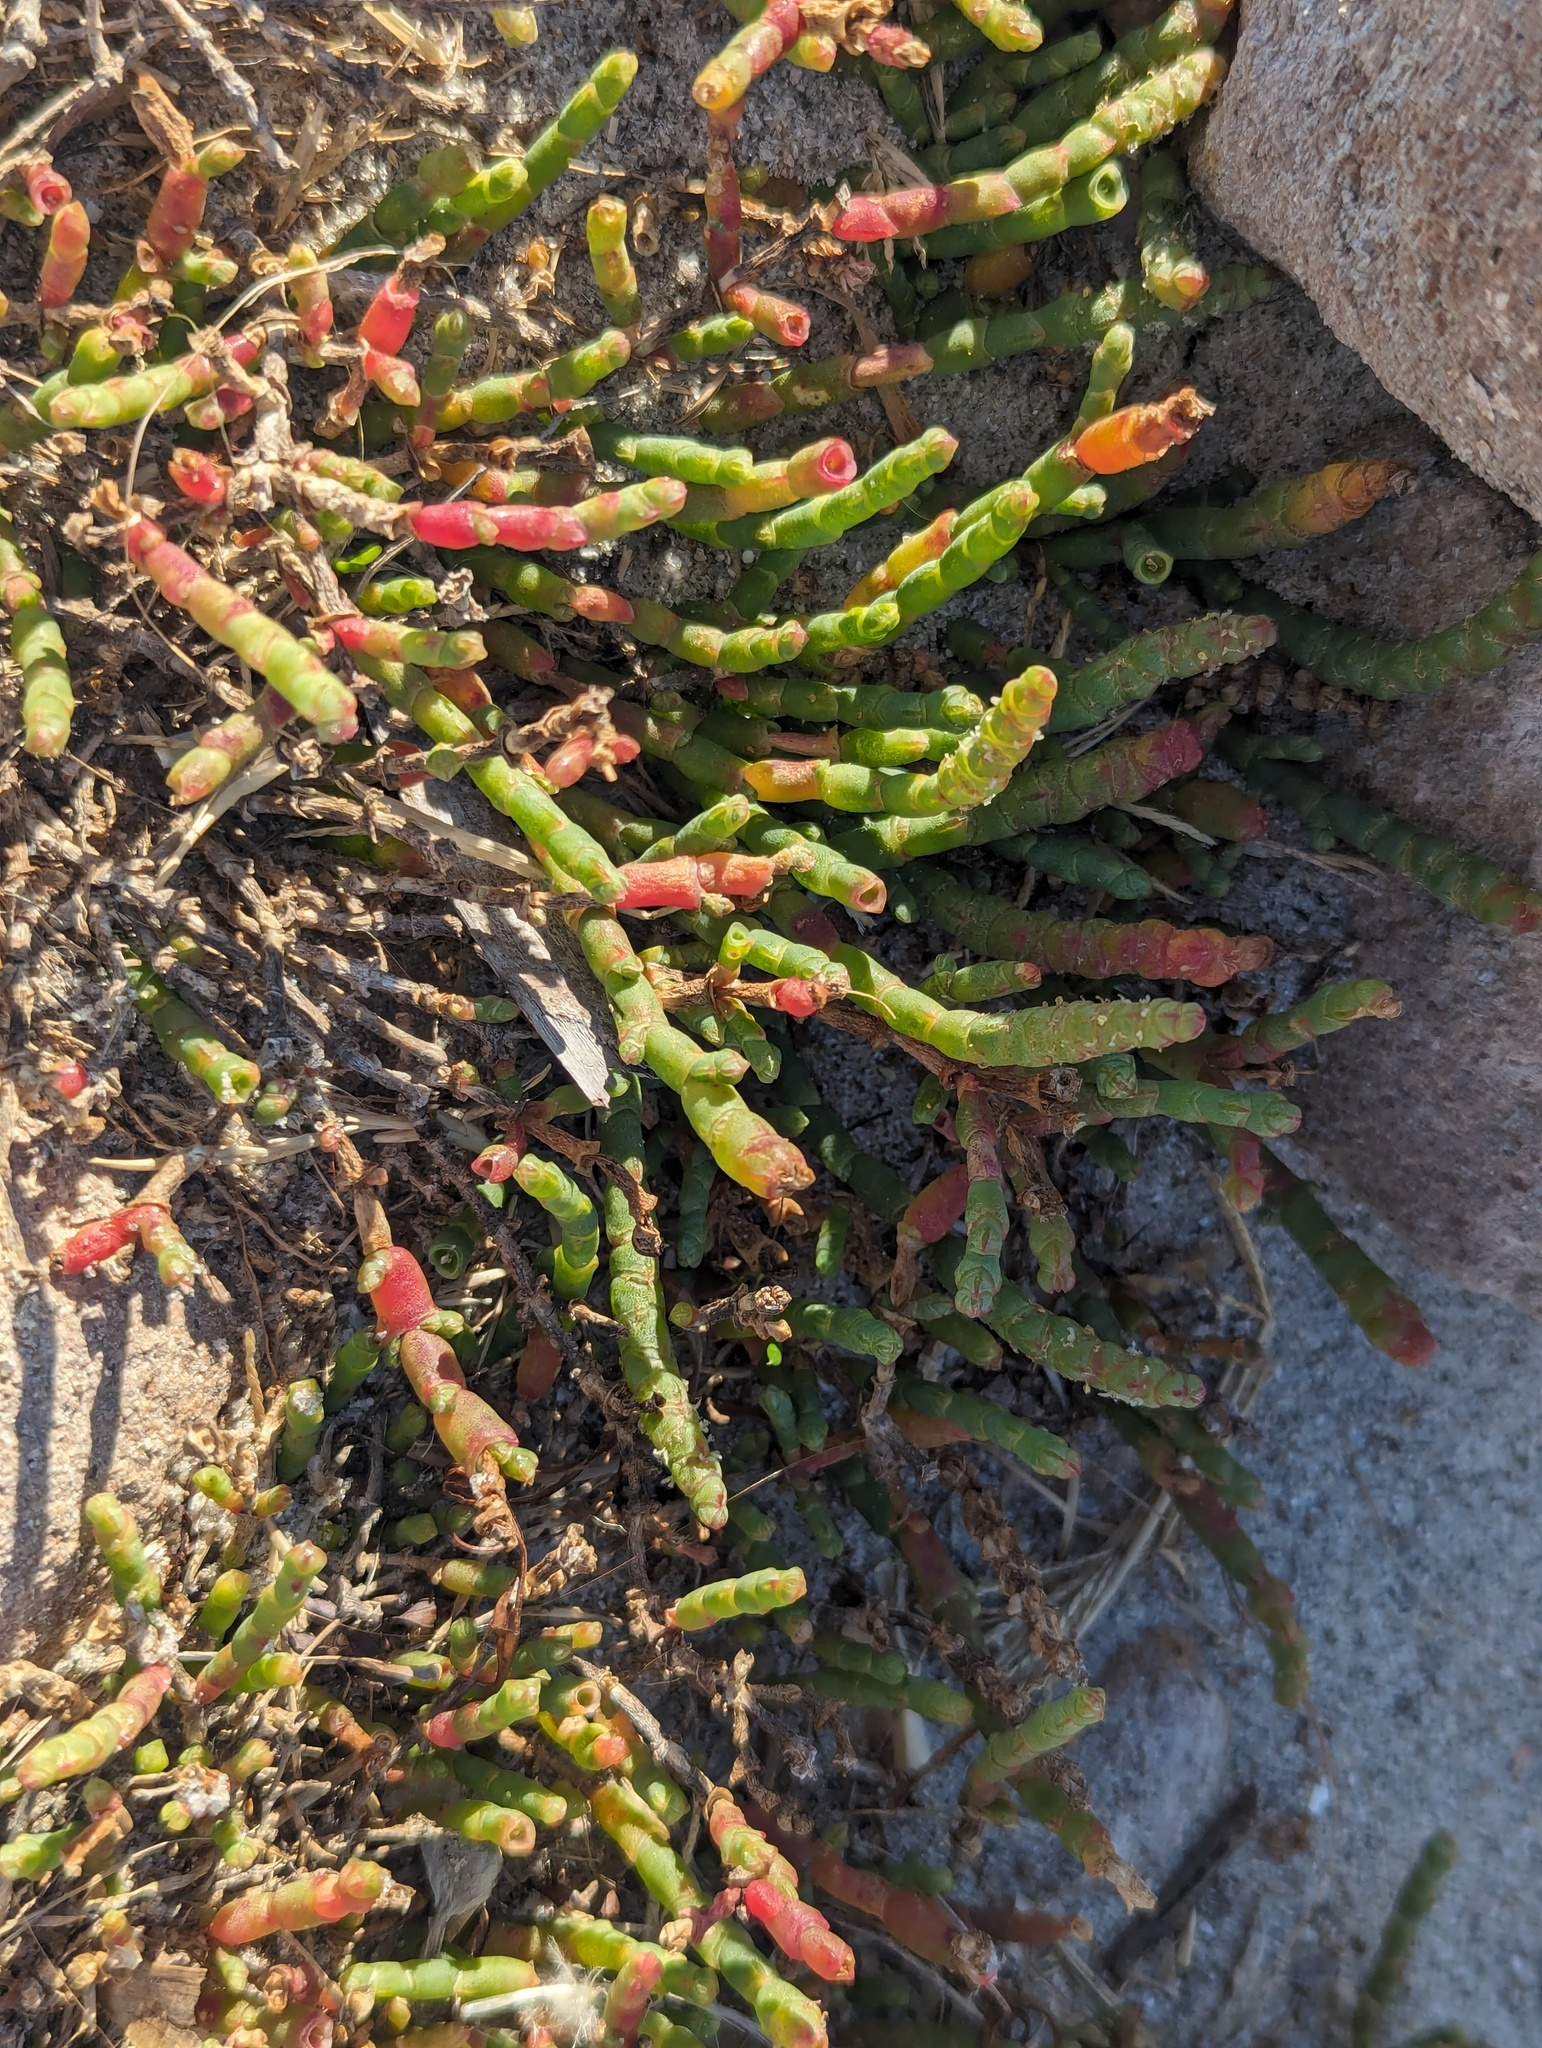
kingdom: Plantae
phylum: Tracheophyta
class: Magnoliopsida
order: Caryophyllales
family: Amaranthaceae
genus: Salicornia
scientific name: Salicornia quinqueflora
